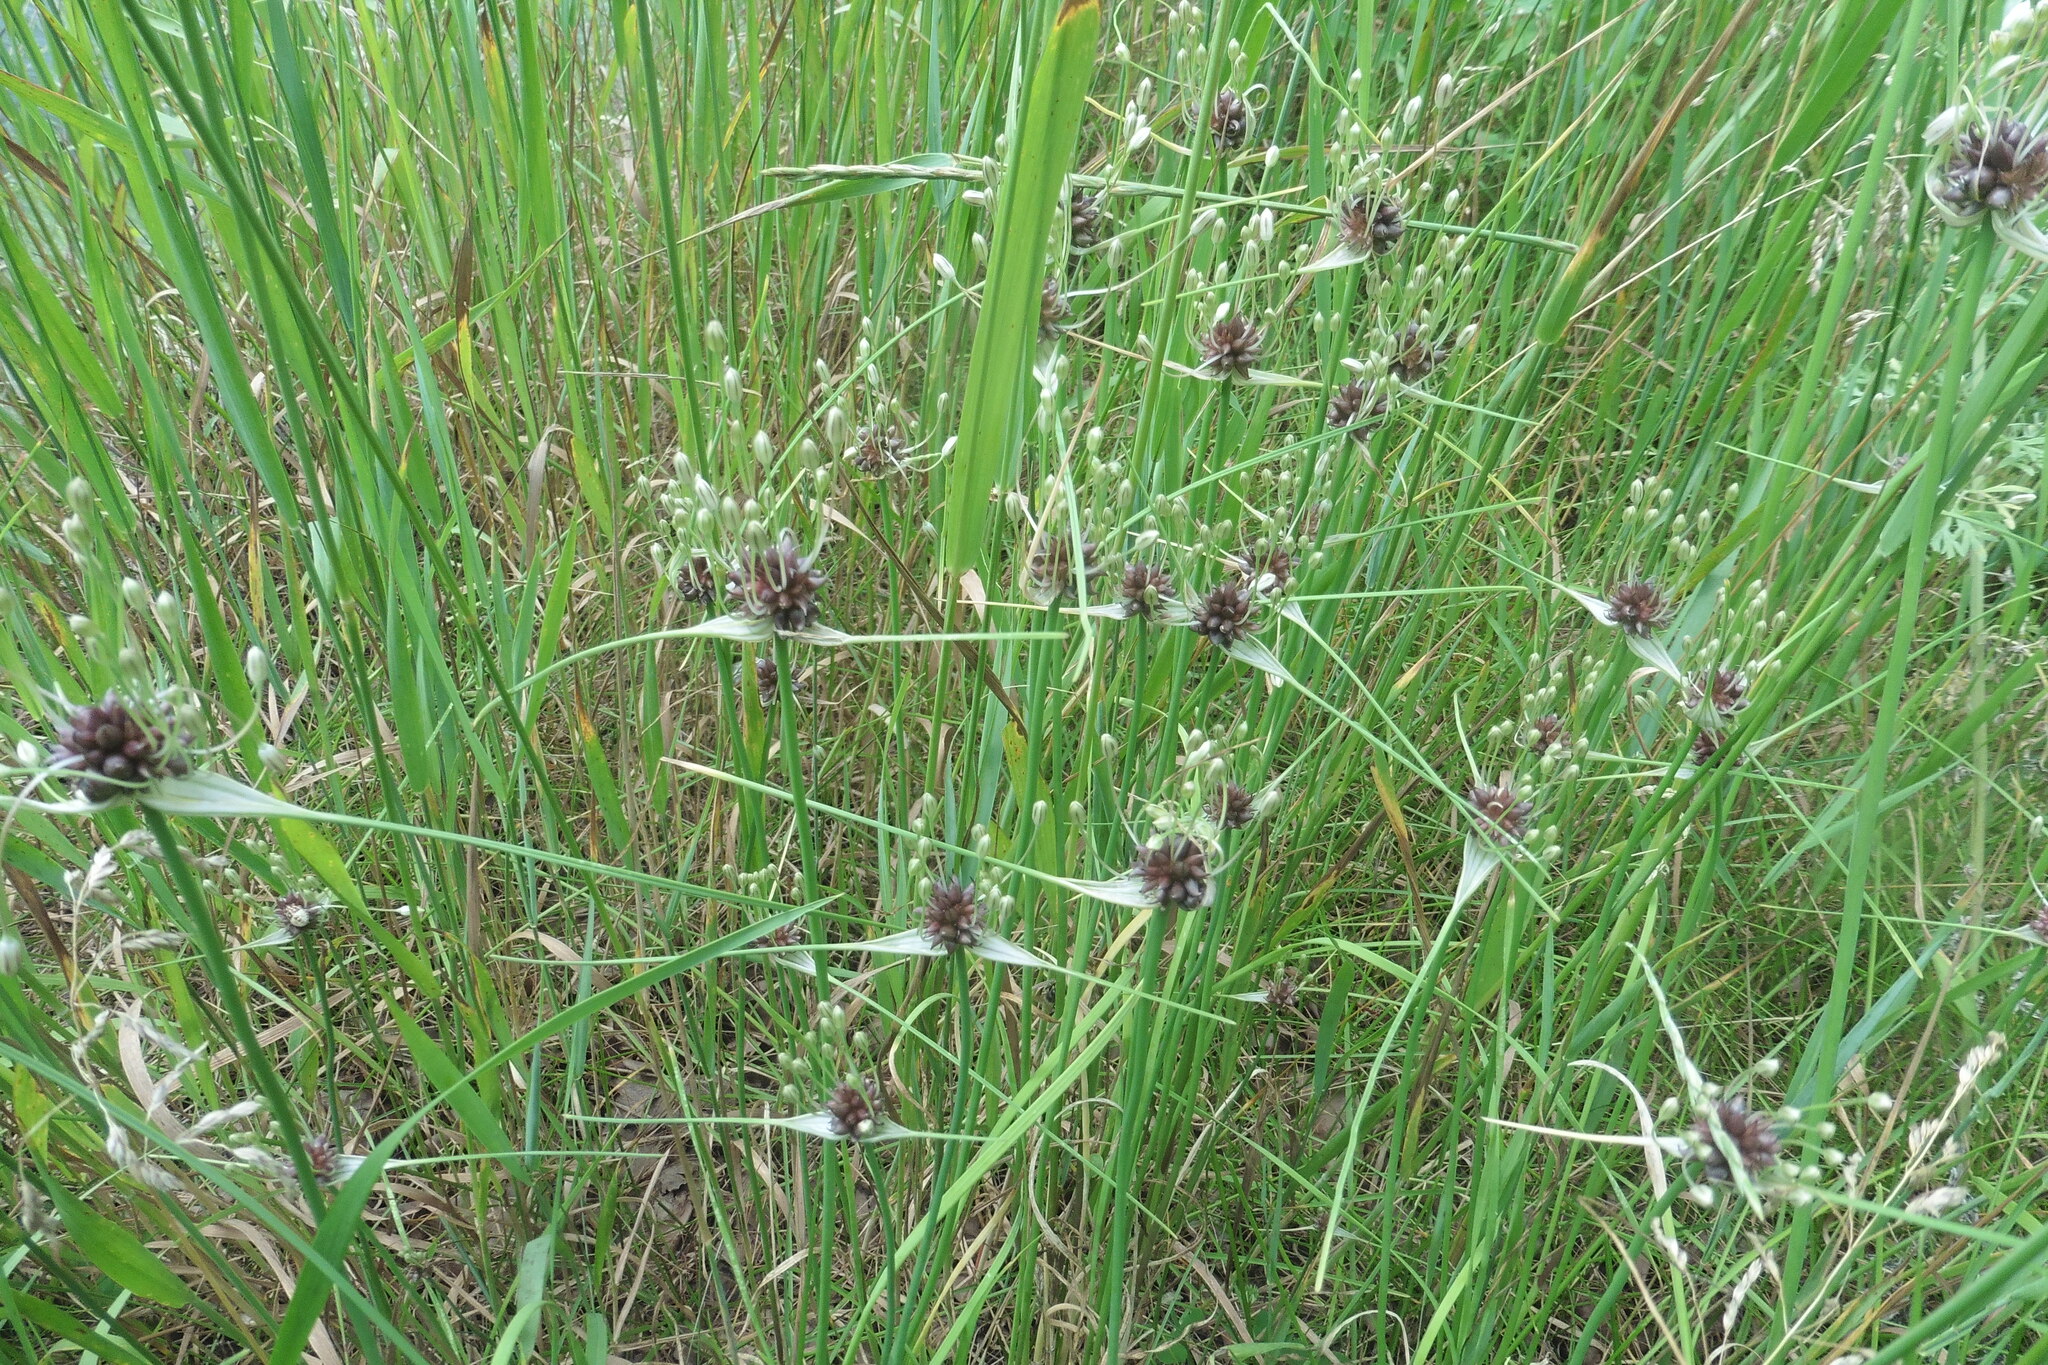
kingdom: Plantae
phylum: Tracheophyta
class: Liliopsida
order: Asparagales
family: Amaryllidaceae
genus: Allium
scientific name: Allium oleraceum
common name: Field garlic
